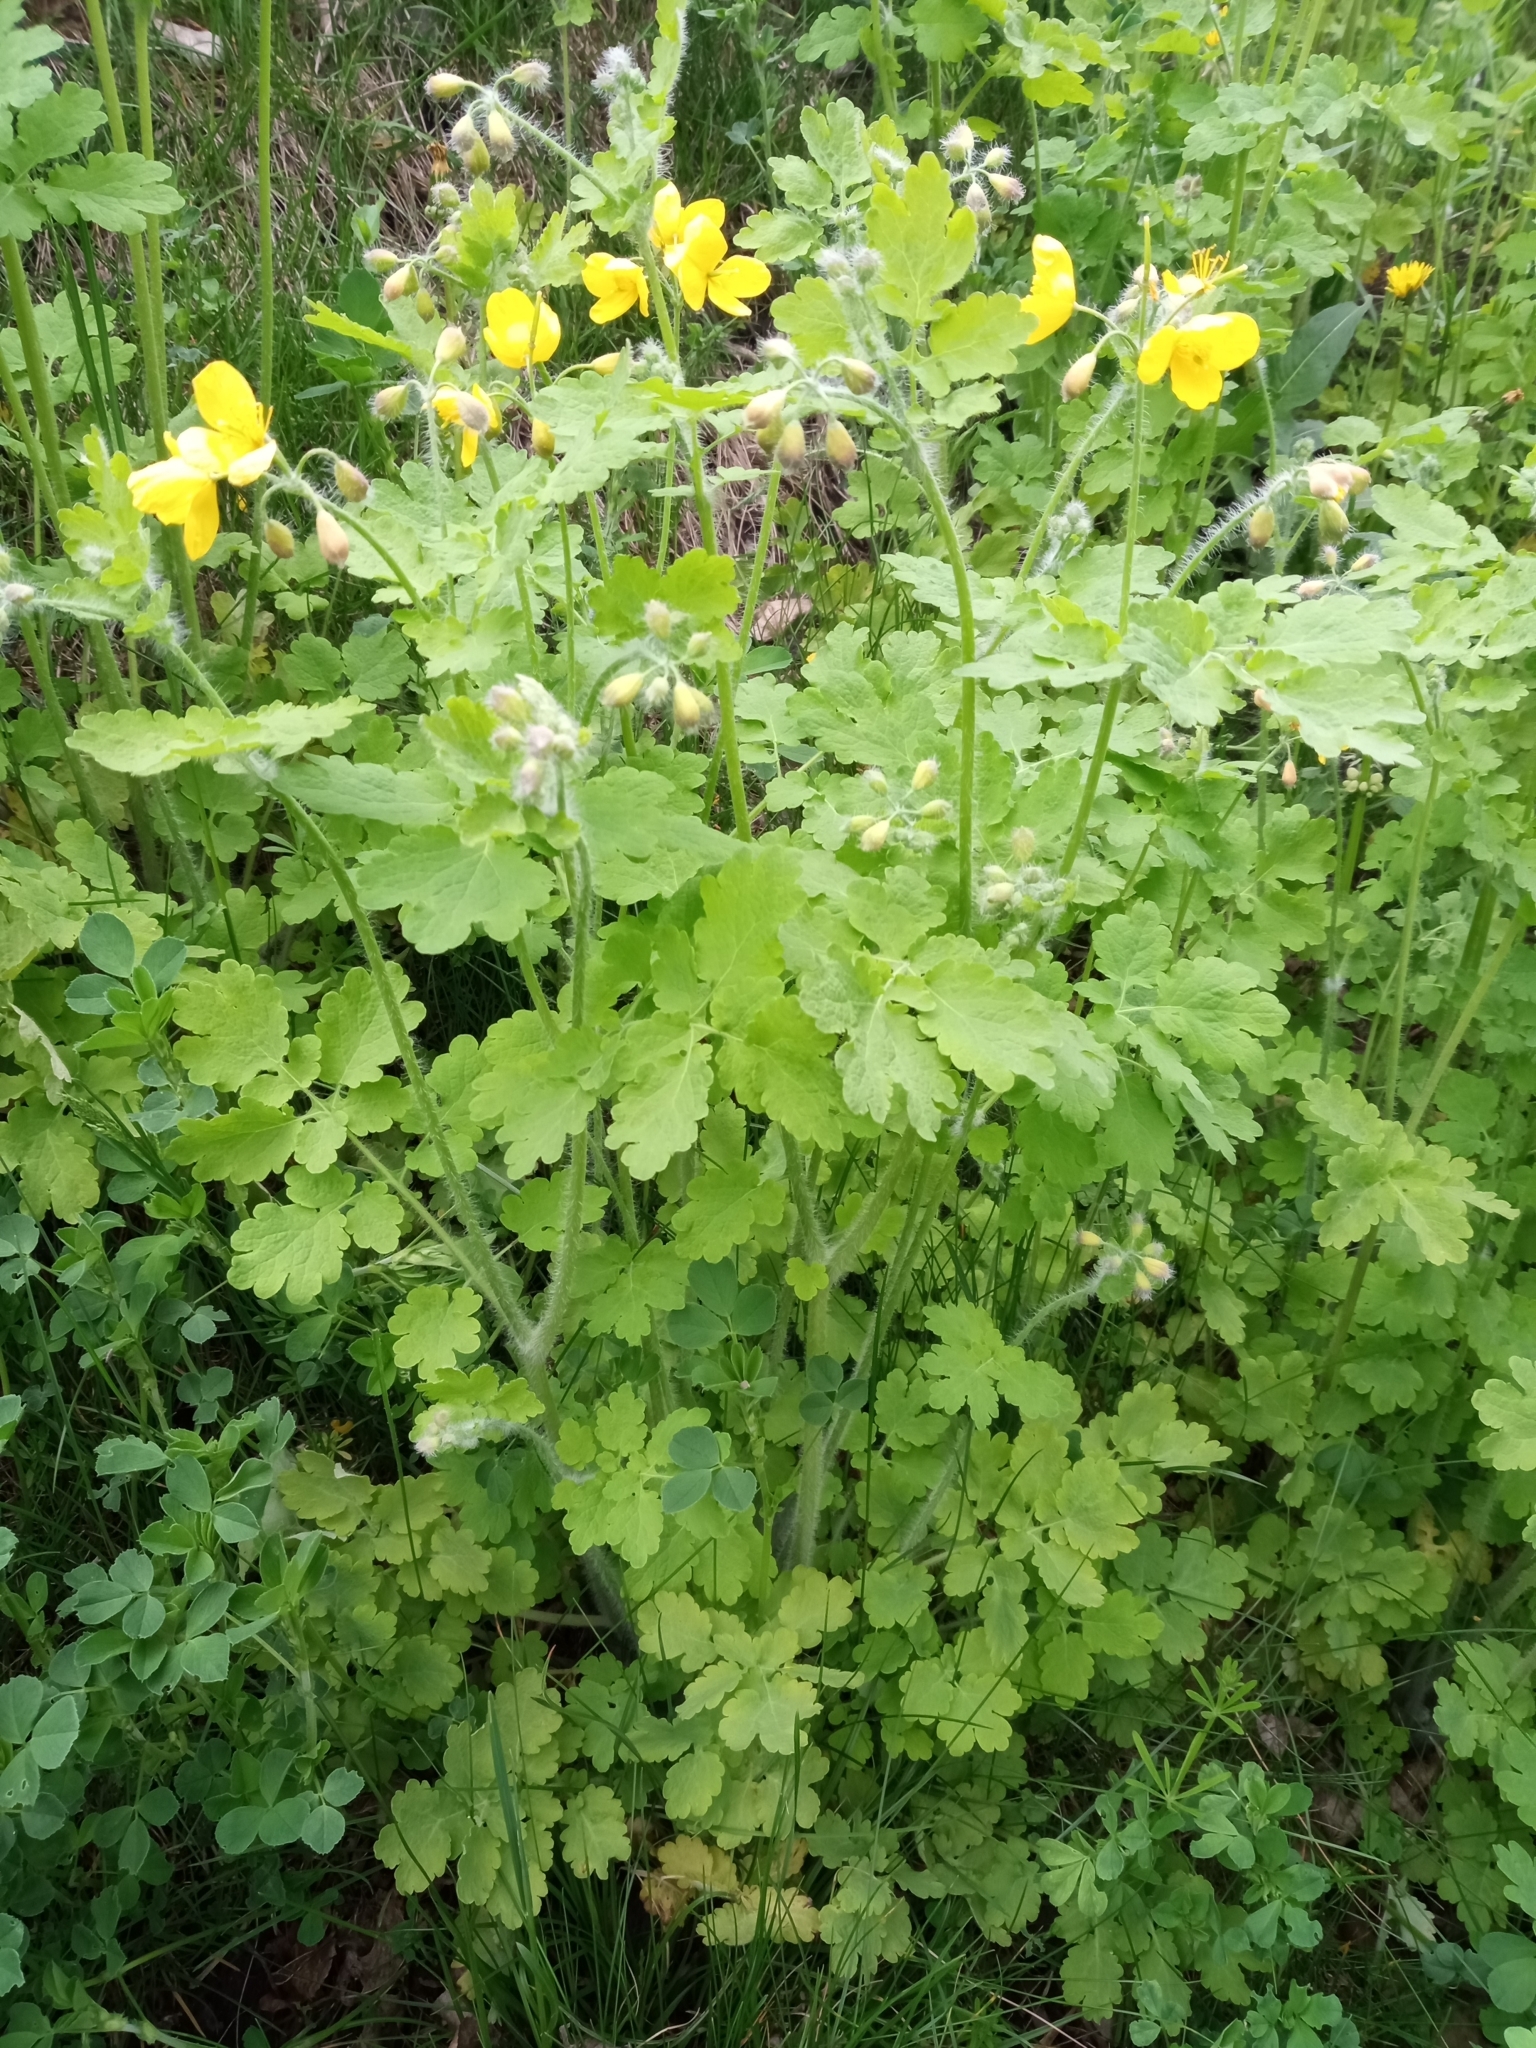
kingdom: Plantae
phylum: Tracheophyta
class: Magnoliopsida
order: Ranunculales
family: Papaveraceae
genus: Chelidonium
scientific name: Chelidonium majus
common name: Greater celandine
